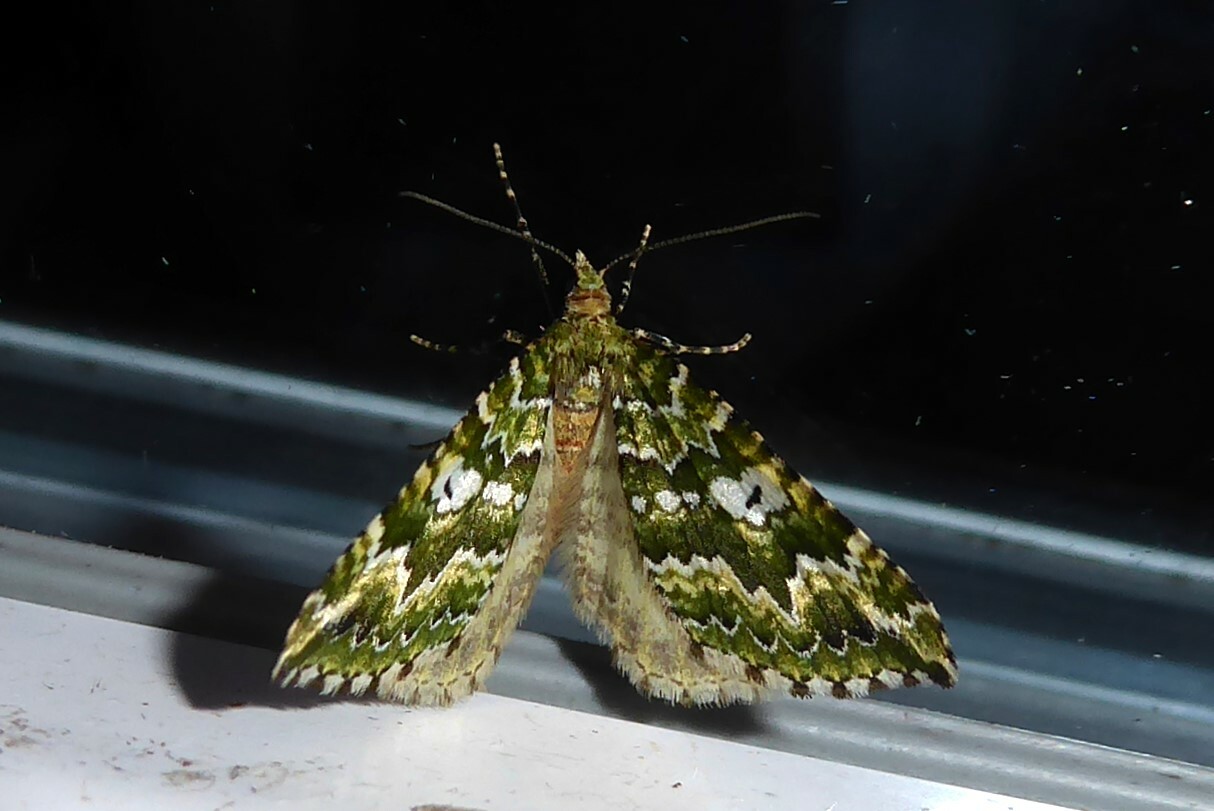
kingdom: Animalia
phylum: Arthropoda
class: Insecta
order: Lepidoptera
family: Geometridae
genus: Asaphodes
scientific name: Asaphodes beata
